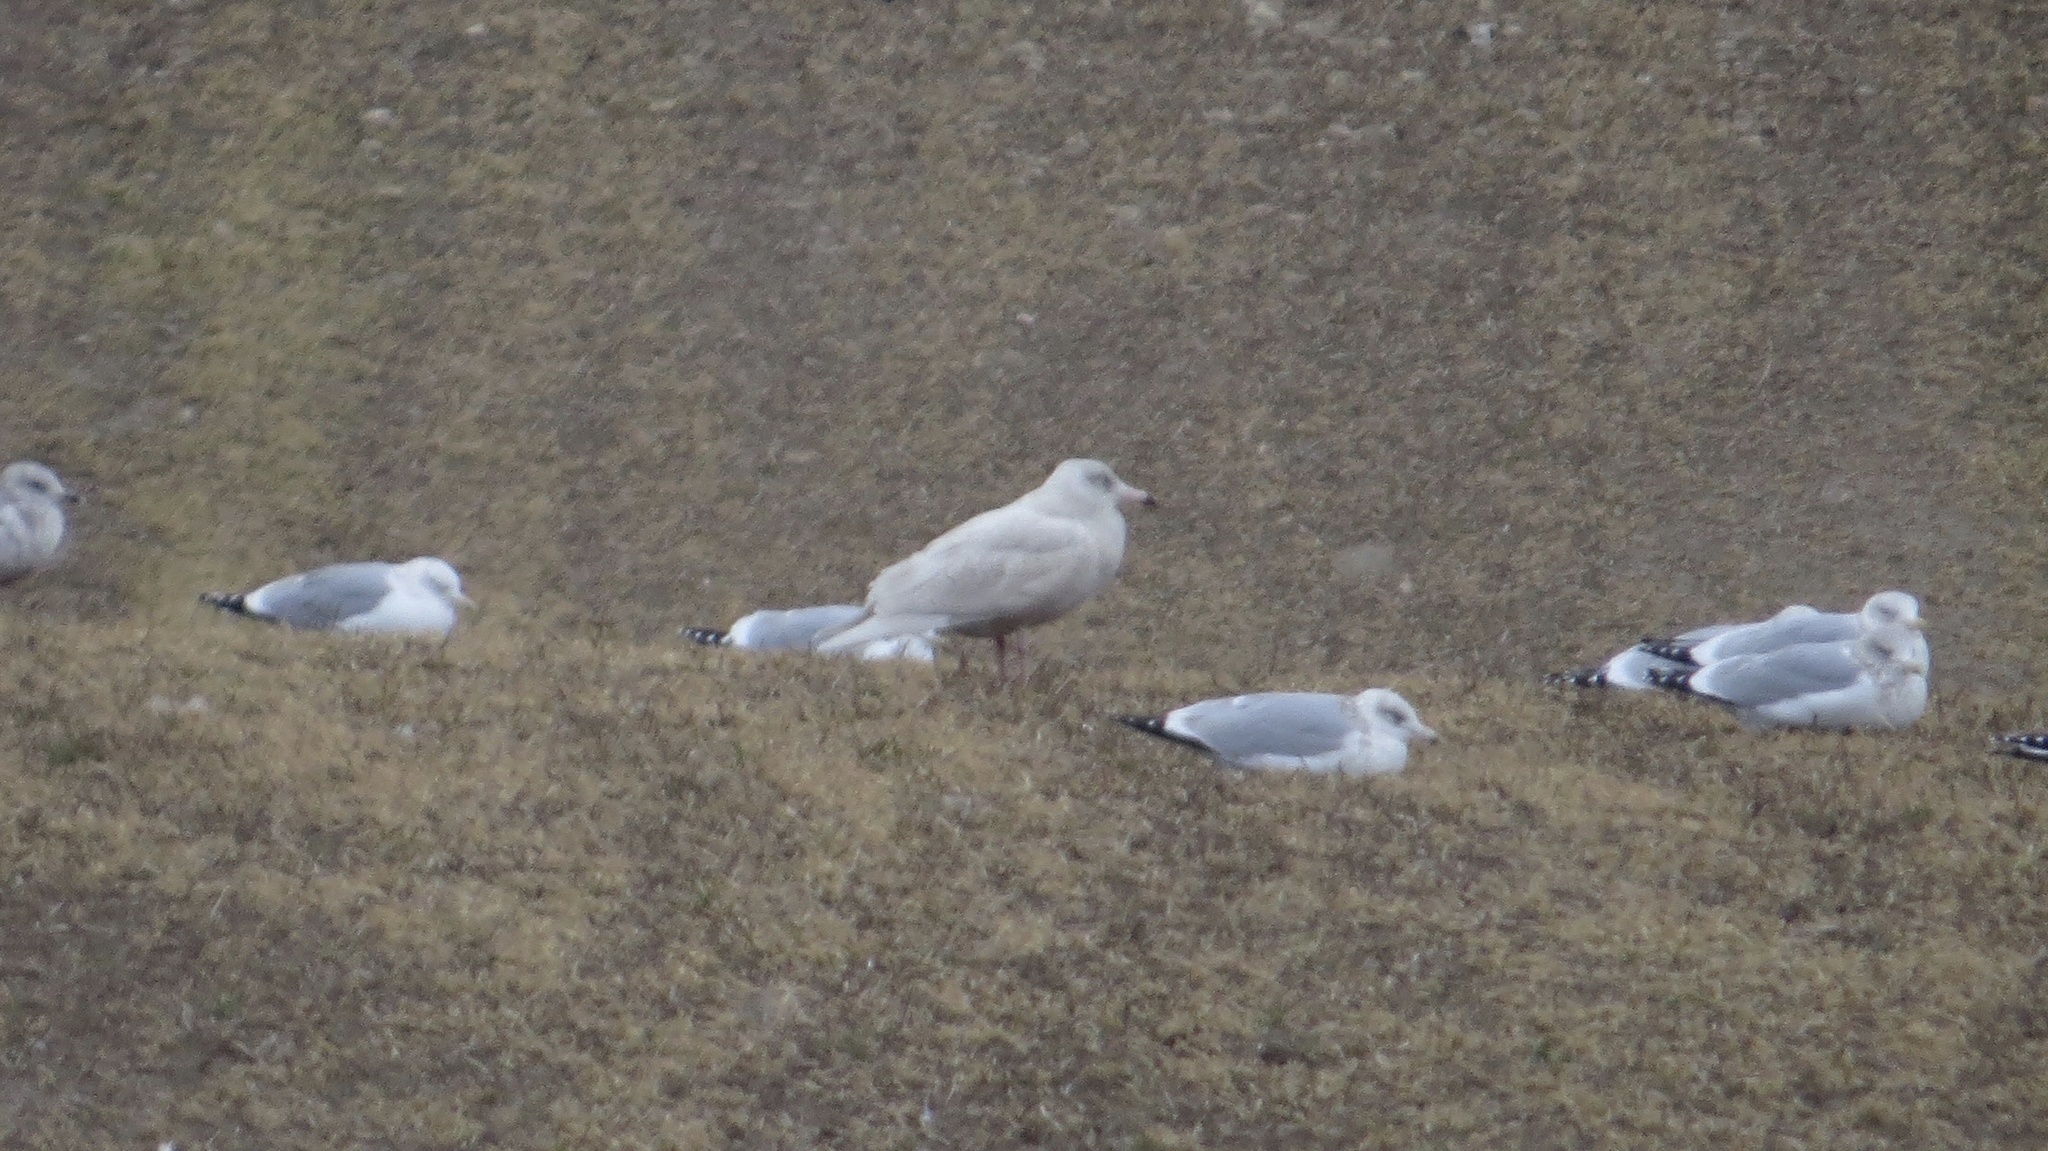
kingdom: Animalia
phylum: Chordata
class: Aves
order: Charadriiformes
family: Laridae
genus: Larus
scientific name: Larus hyperboreus
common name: Glaucous gull
